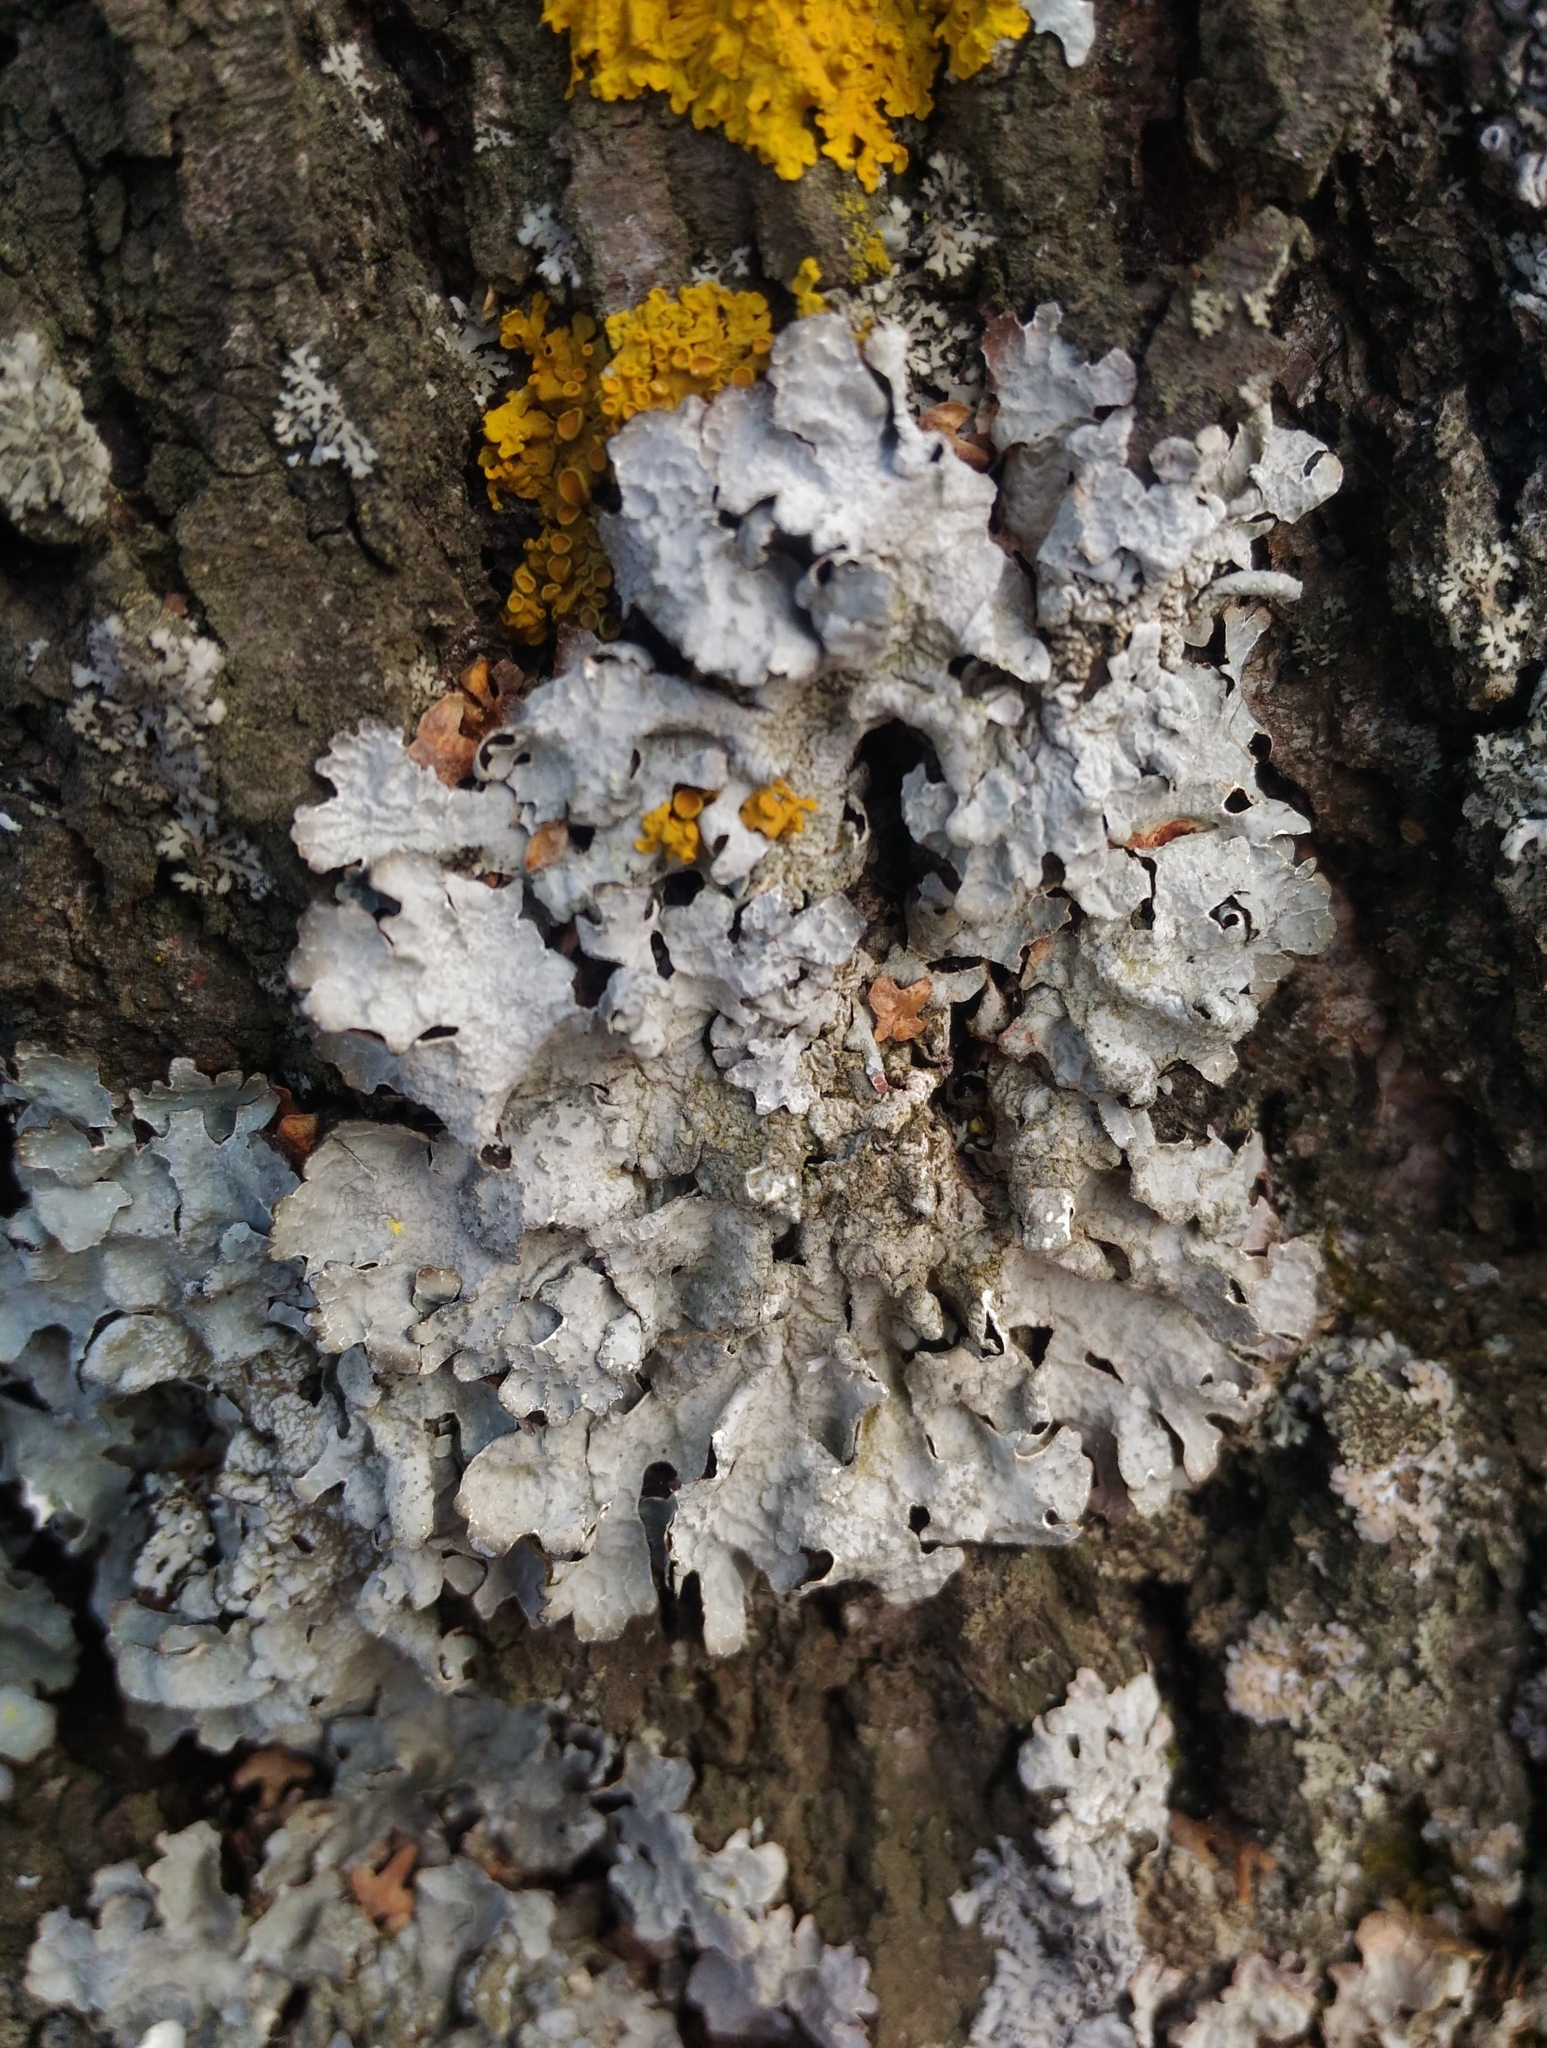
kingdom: Fungi
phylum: Ascomycota
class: Lecanoromycetes
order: Lecanorales
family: Parmeliaceae
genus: Parmelia
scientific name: Parmelia sulcata
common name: Netted shield lichen
